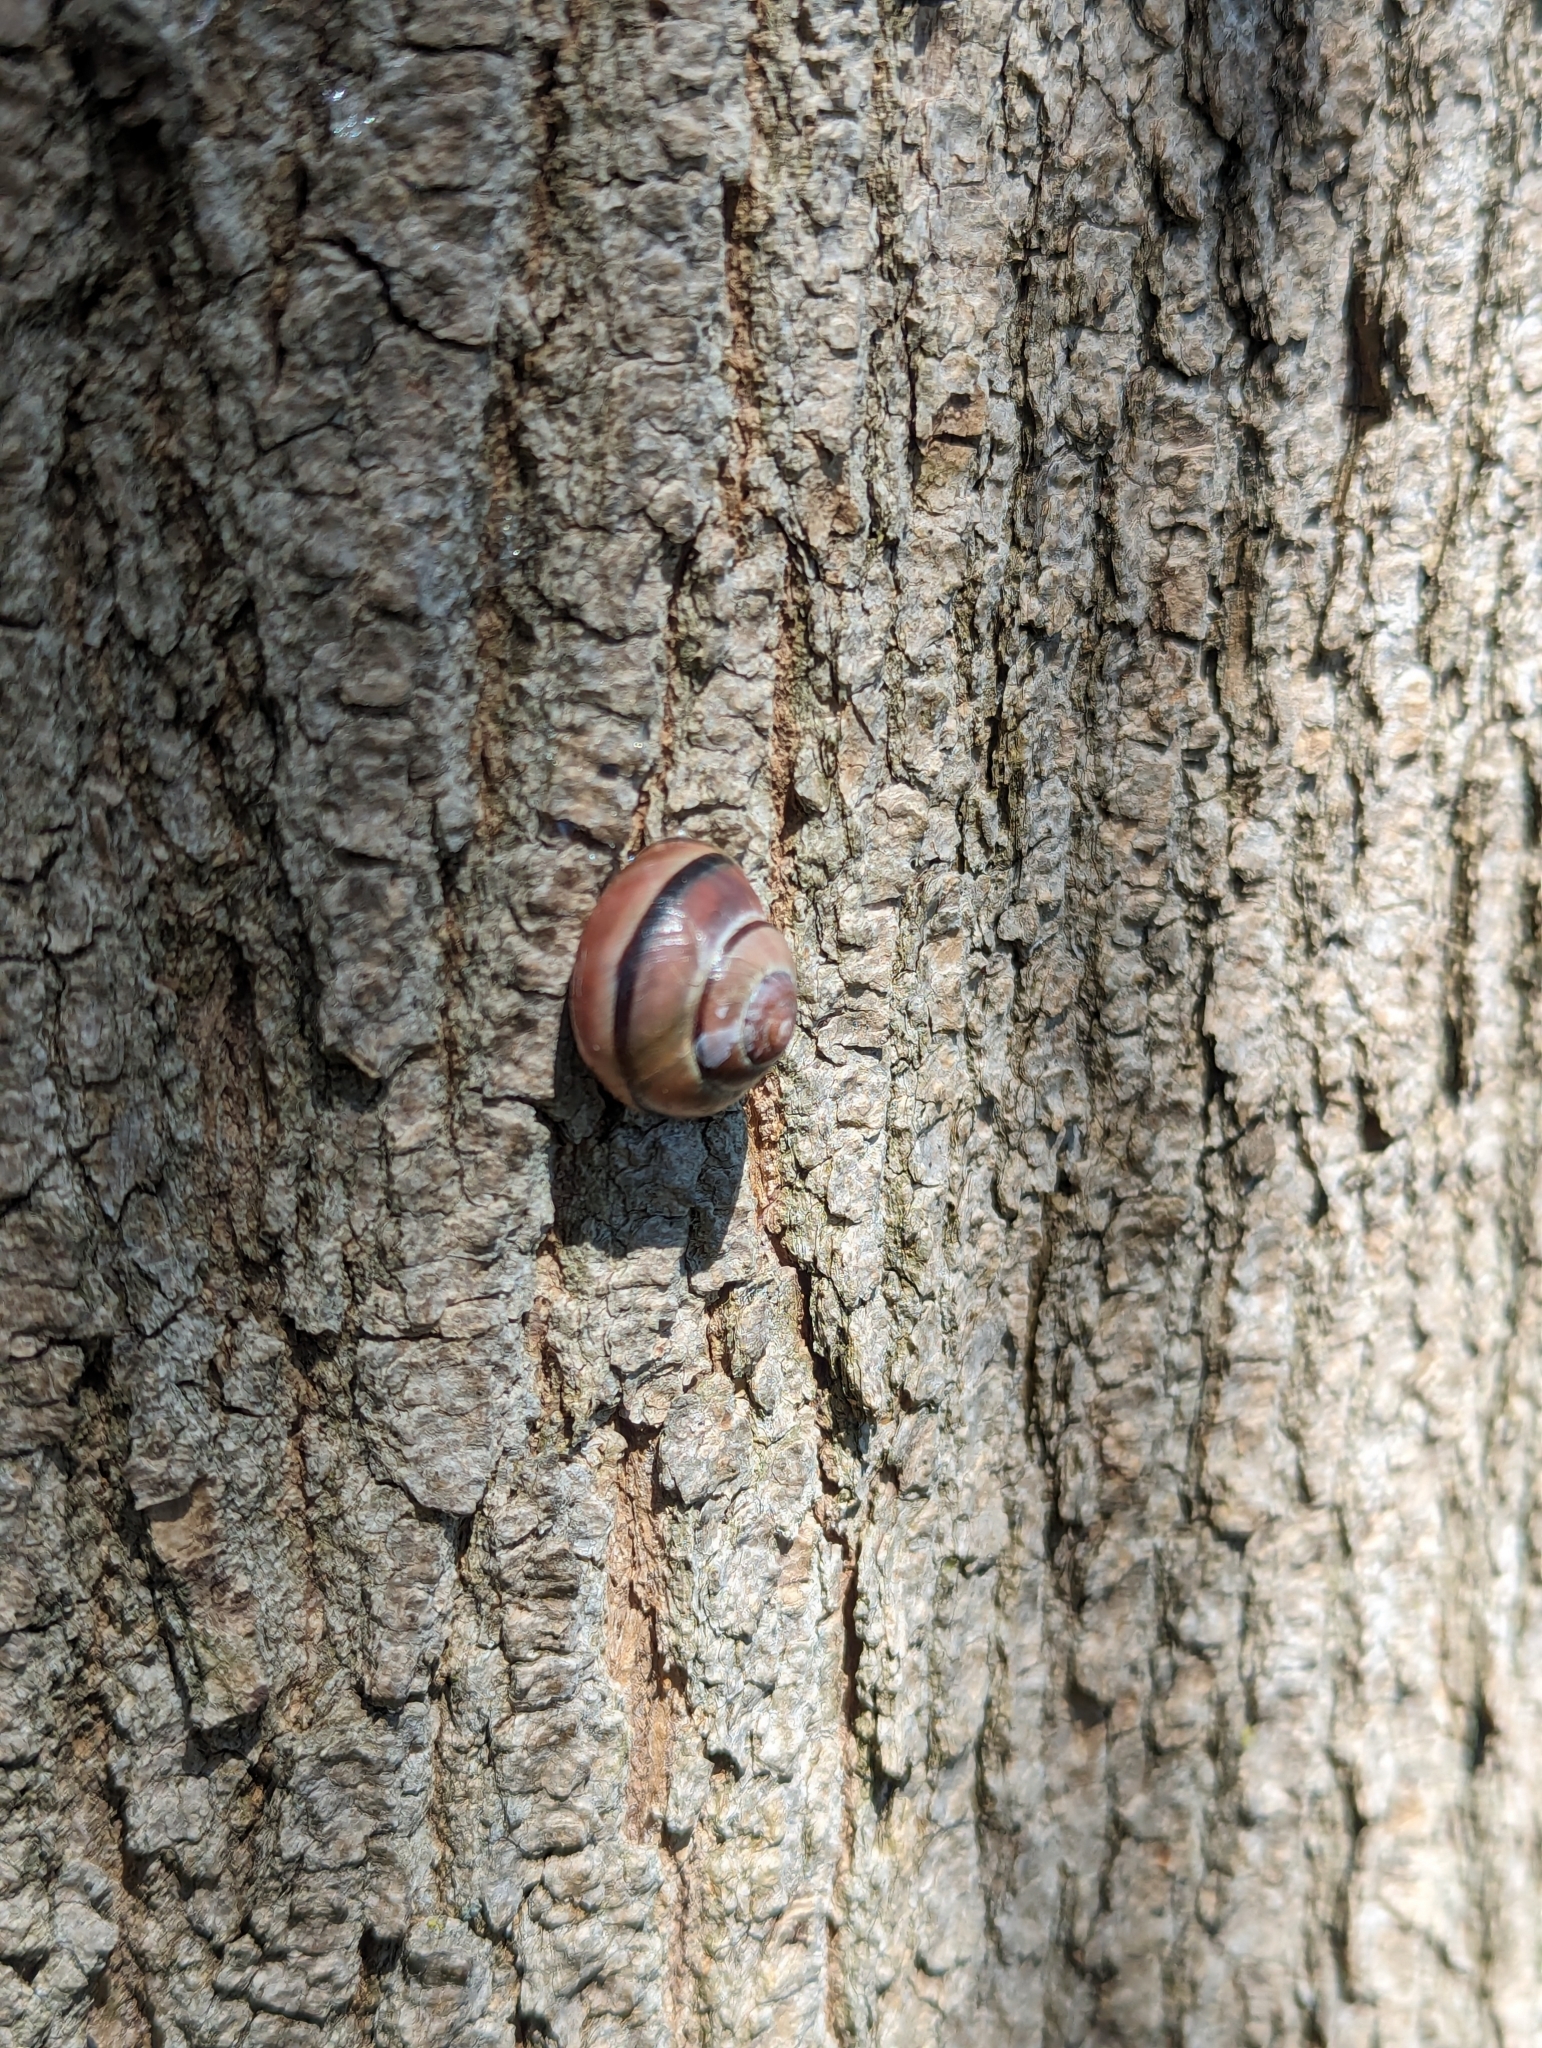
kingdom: Animalia
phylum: Mollusca
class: Gastropoda
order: Stylommatophora
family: Helicidae
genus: Cepaea
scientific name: Cepaea nemoralis
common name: Grovesnail
